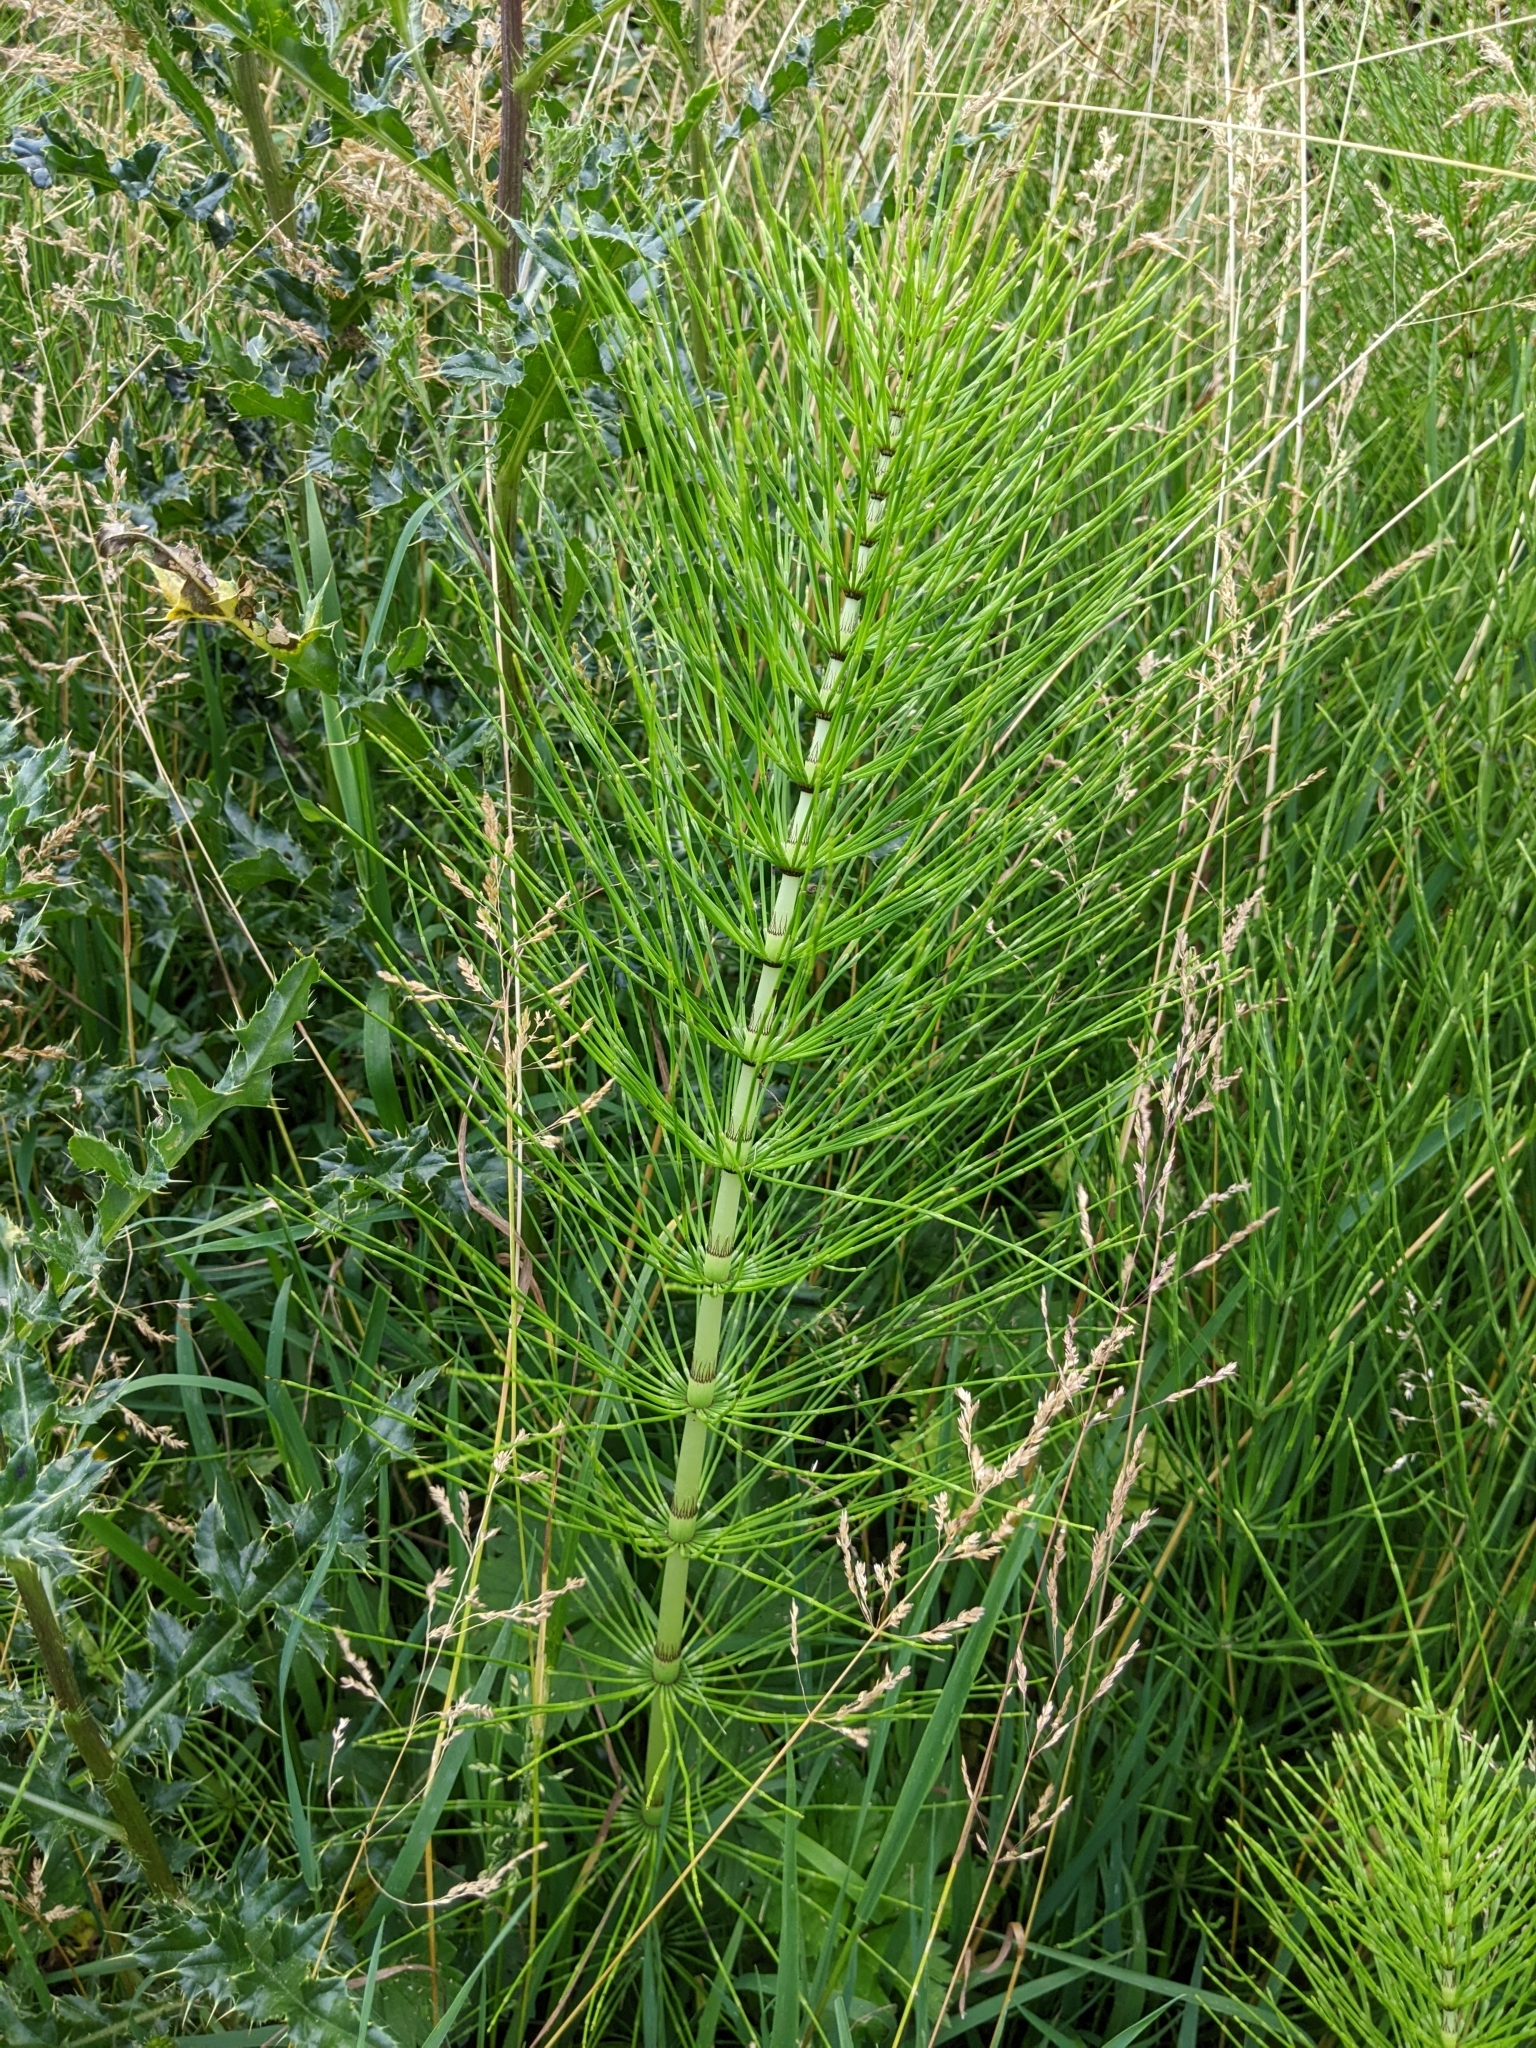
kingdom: Plantae
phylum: Tracheophyta
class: Polypodiopsida
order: Equisetales
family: Equisetaceae
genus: Equisetum
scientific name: Equisetum telmateia
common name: Great horsetail
